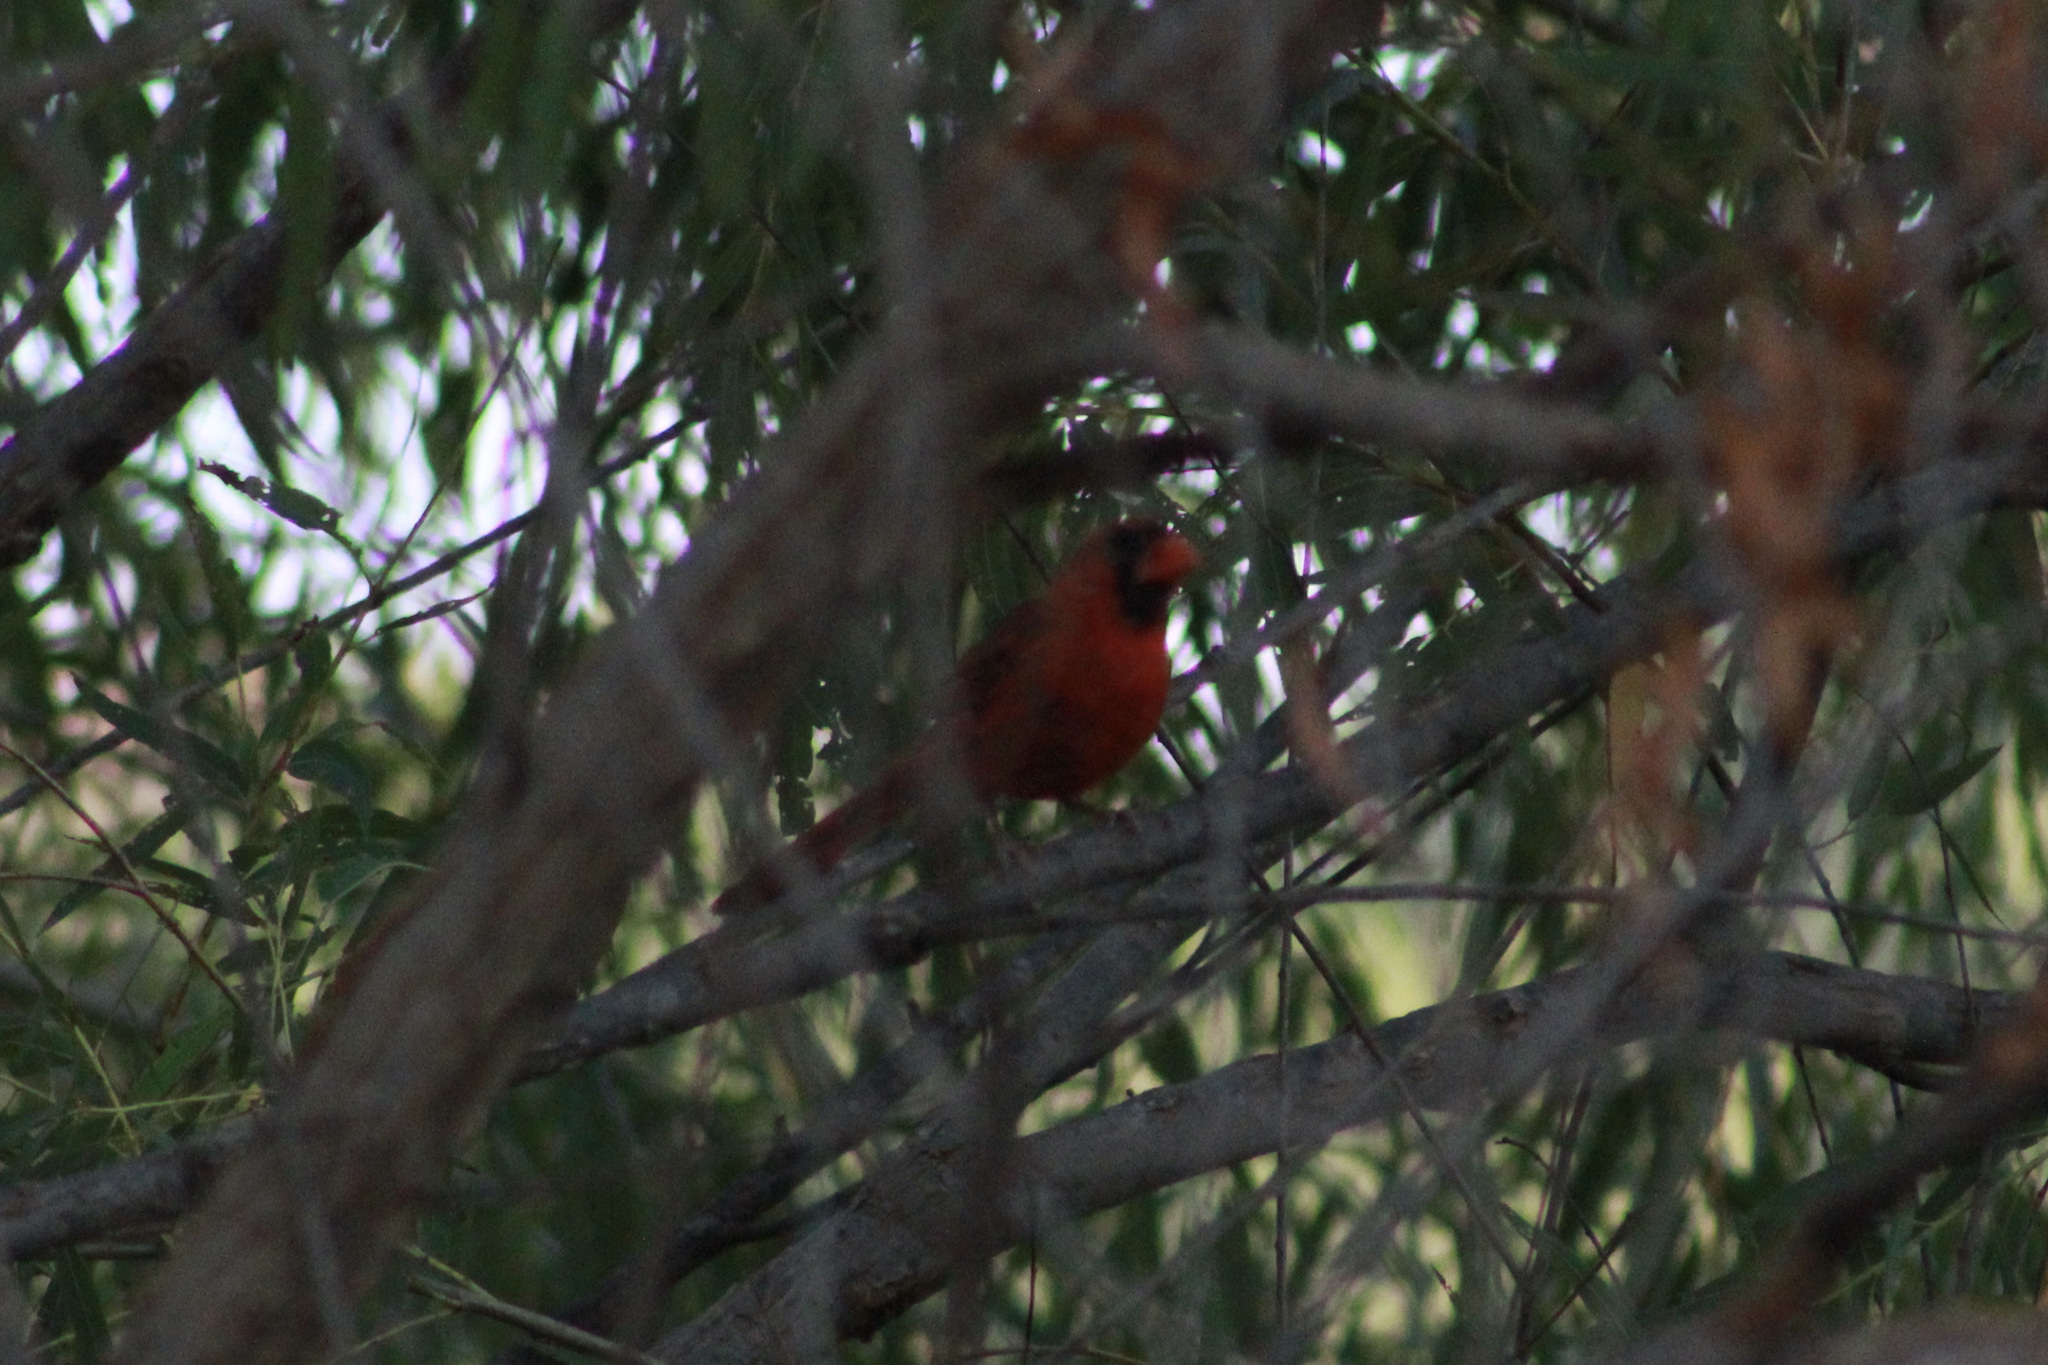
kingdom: Animalia
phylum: Chordata
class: Aves
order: Passeriformes
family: Cardinalidae
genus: Cardinalis
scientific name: Cardinalis cardinalis
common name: Northern cardinal
